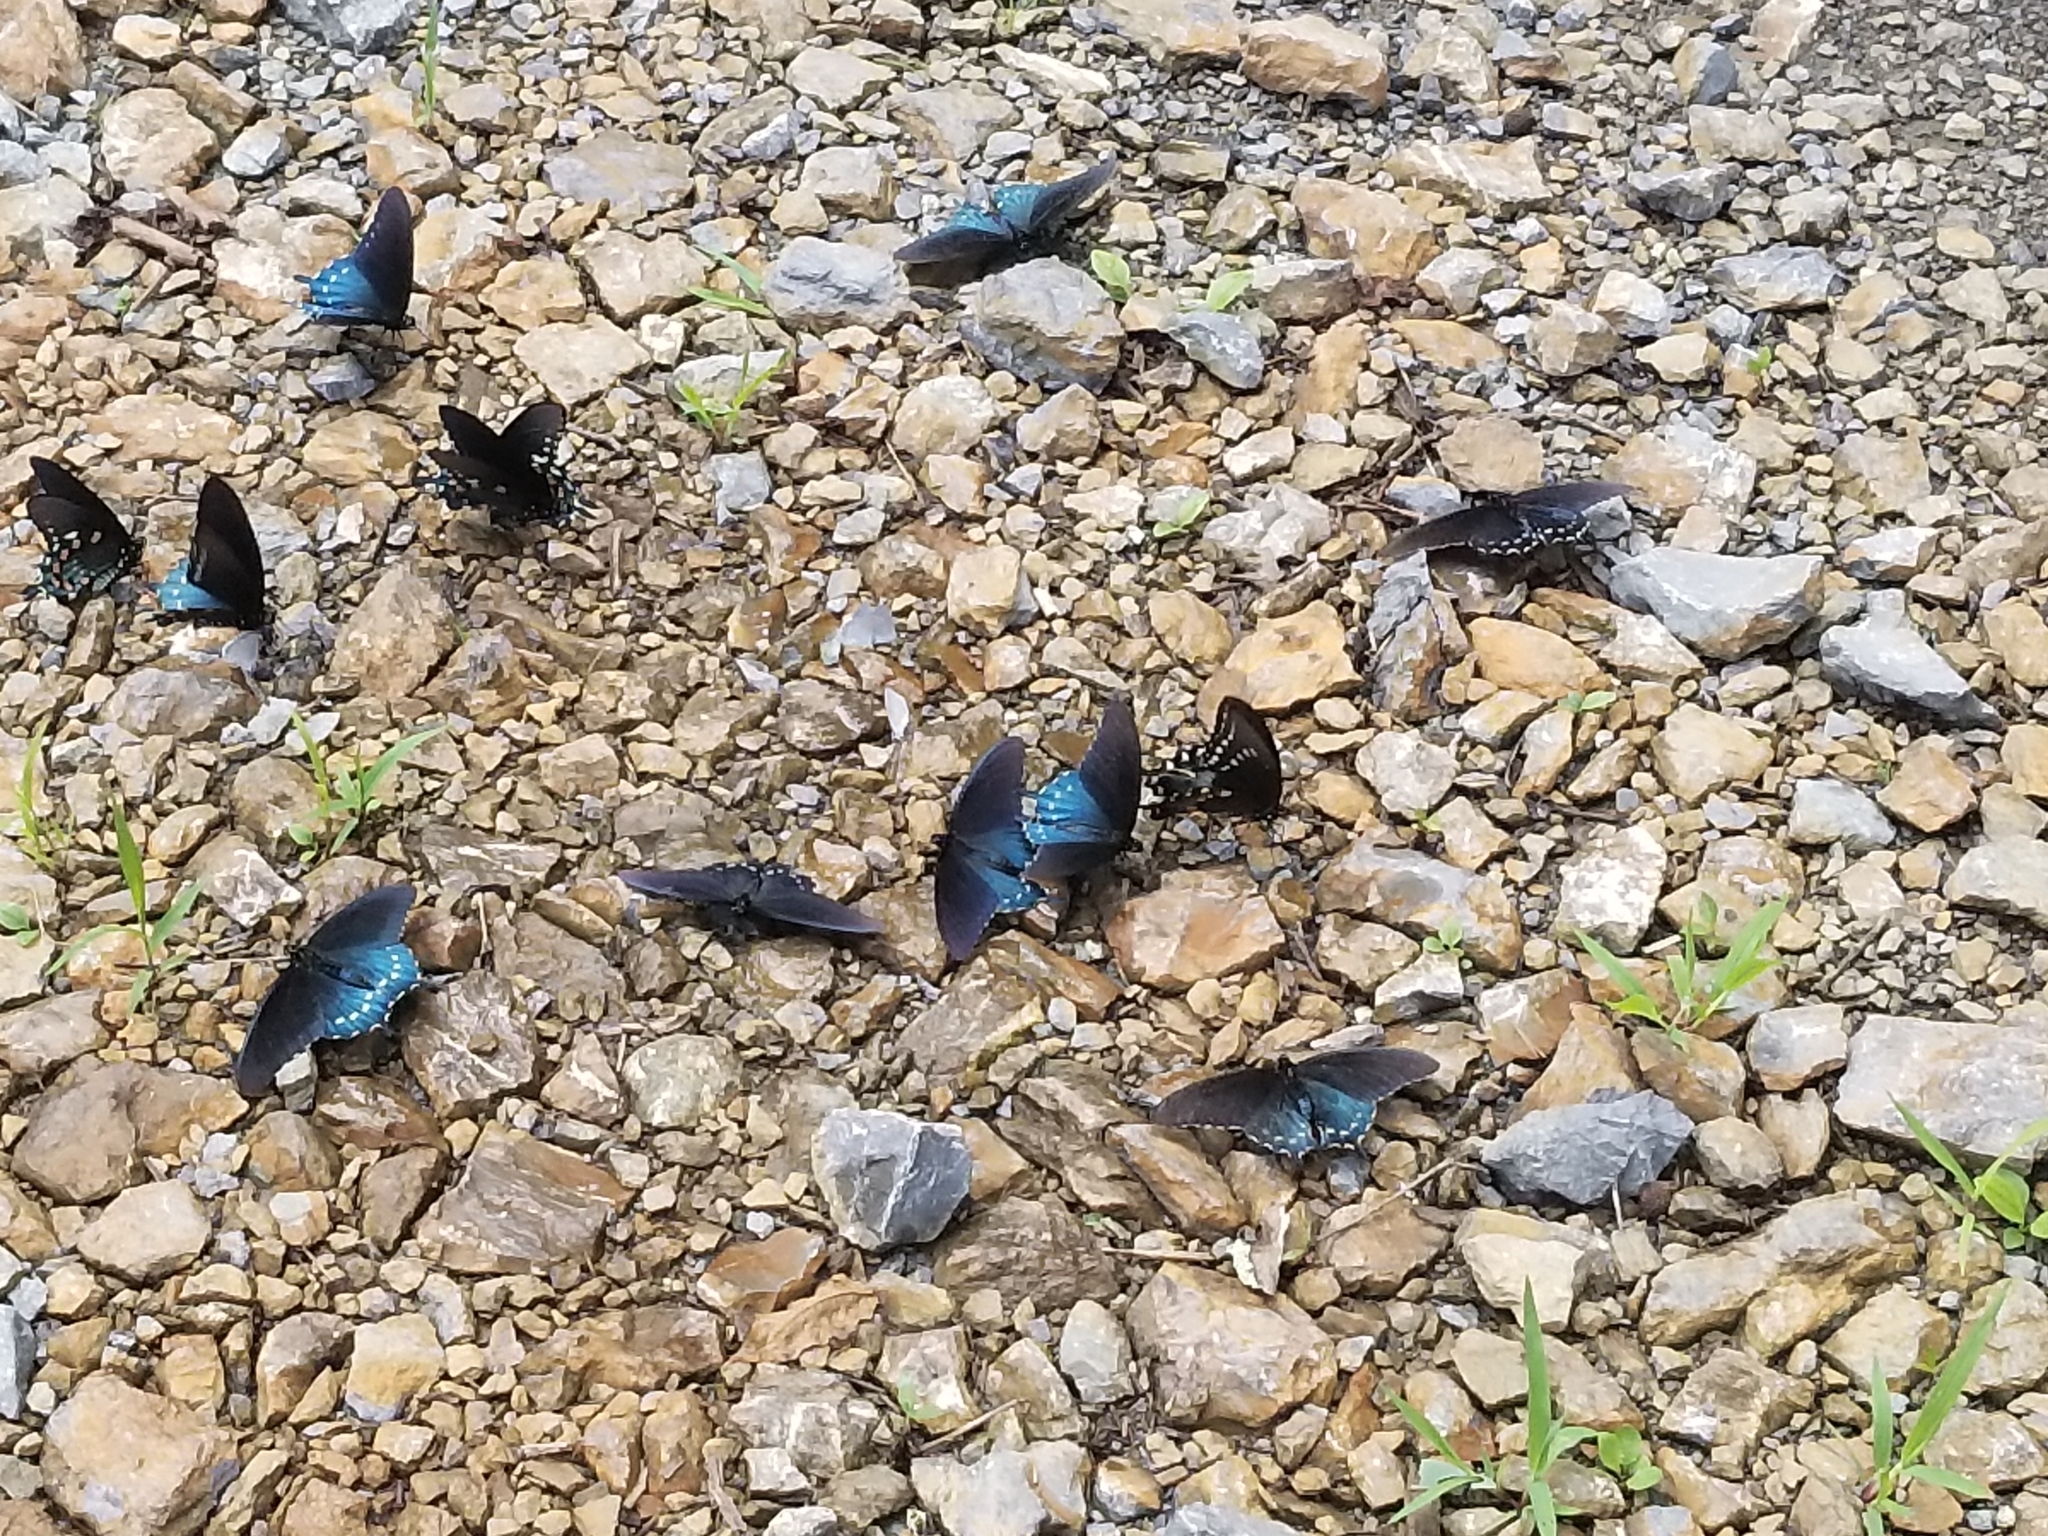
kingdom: Animalia
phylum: Arthropoda
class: Insecta
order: Lepidoptera
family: Papilionidae
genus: Battus
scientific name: Battus philenor
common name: Pipevine swallowtail
